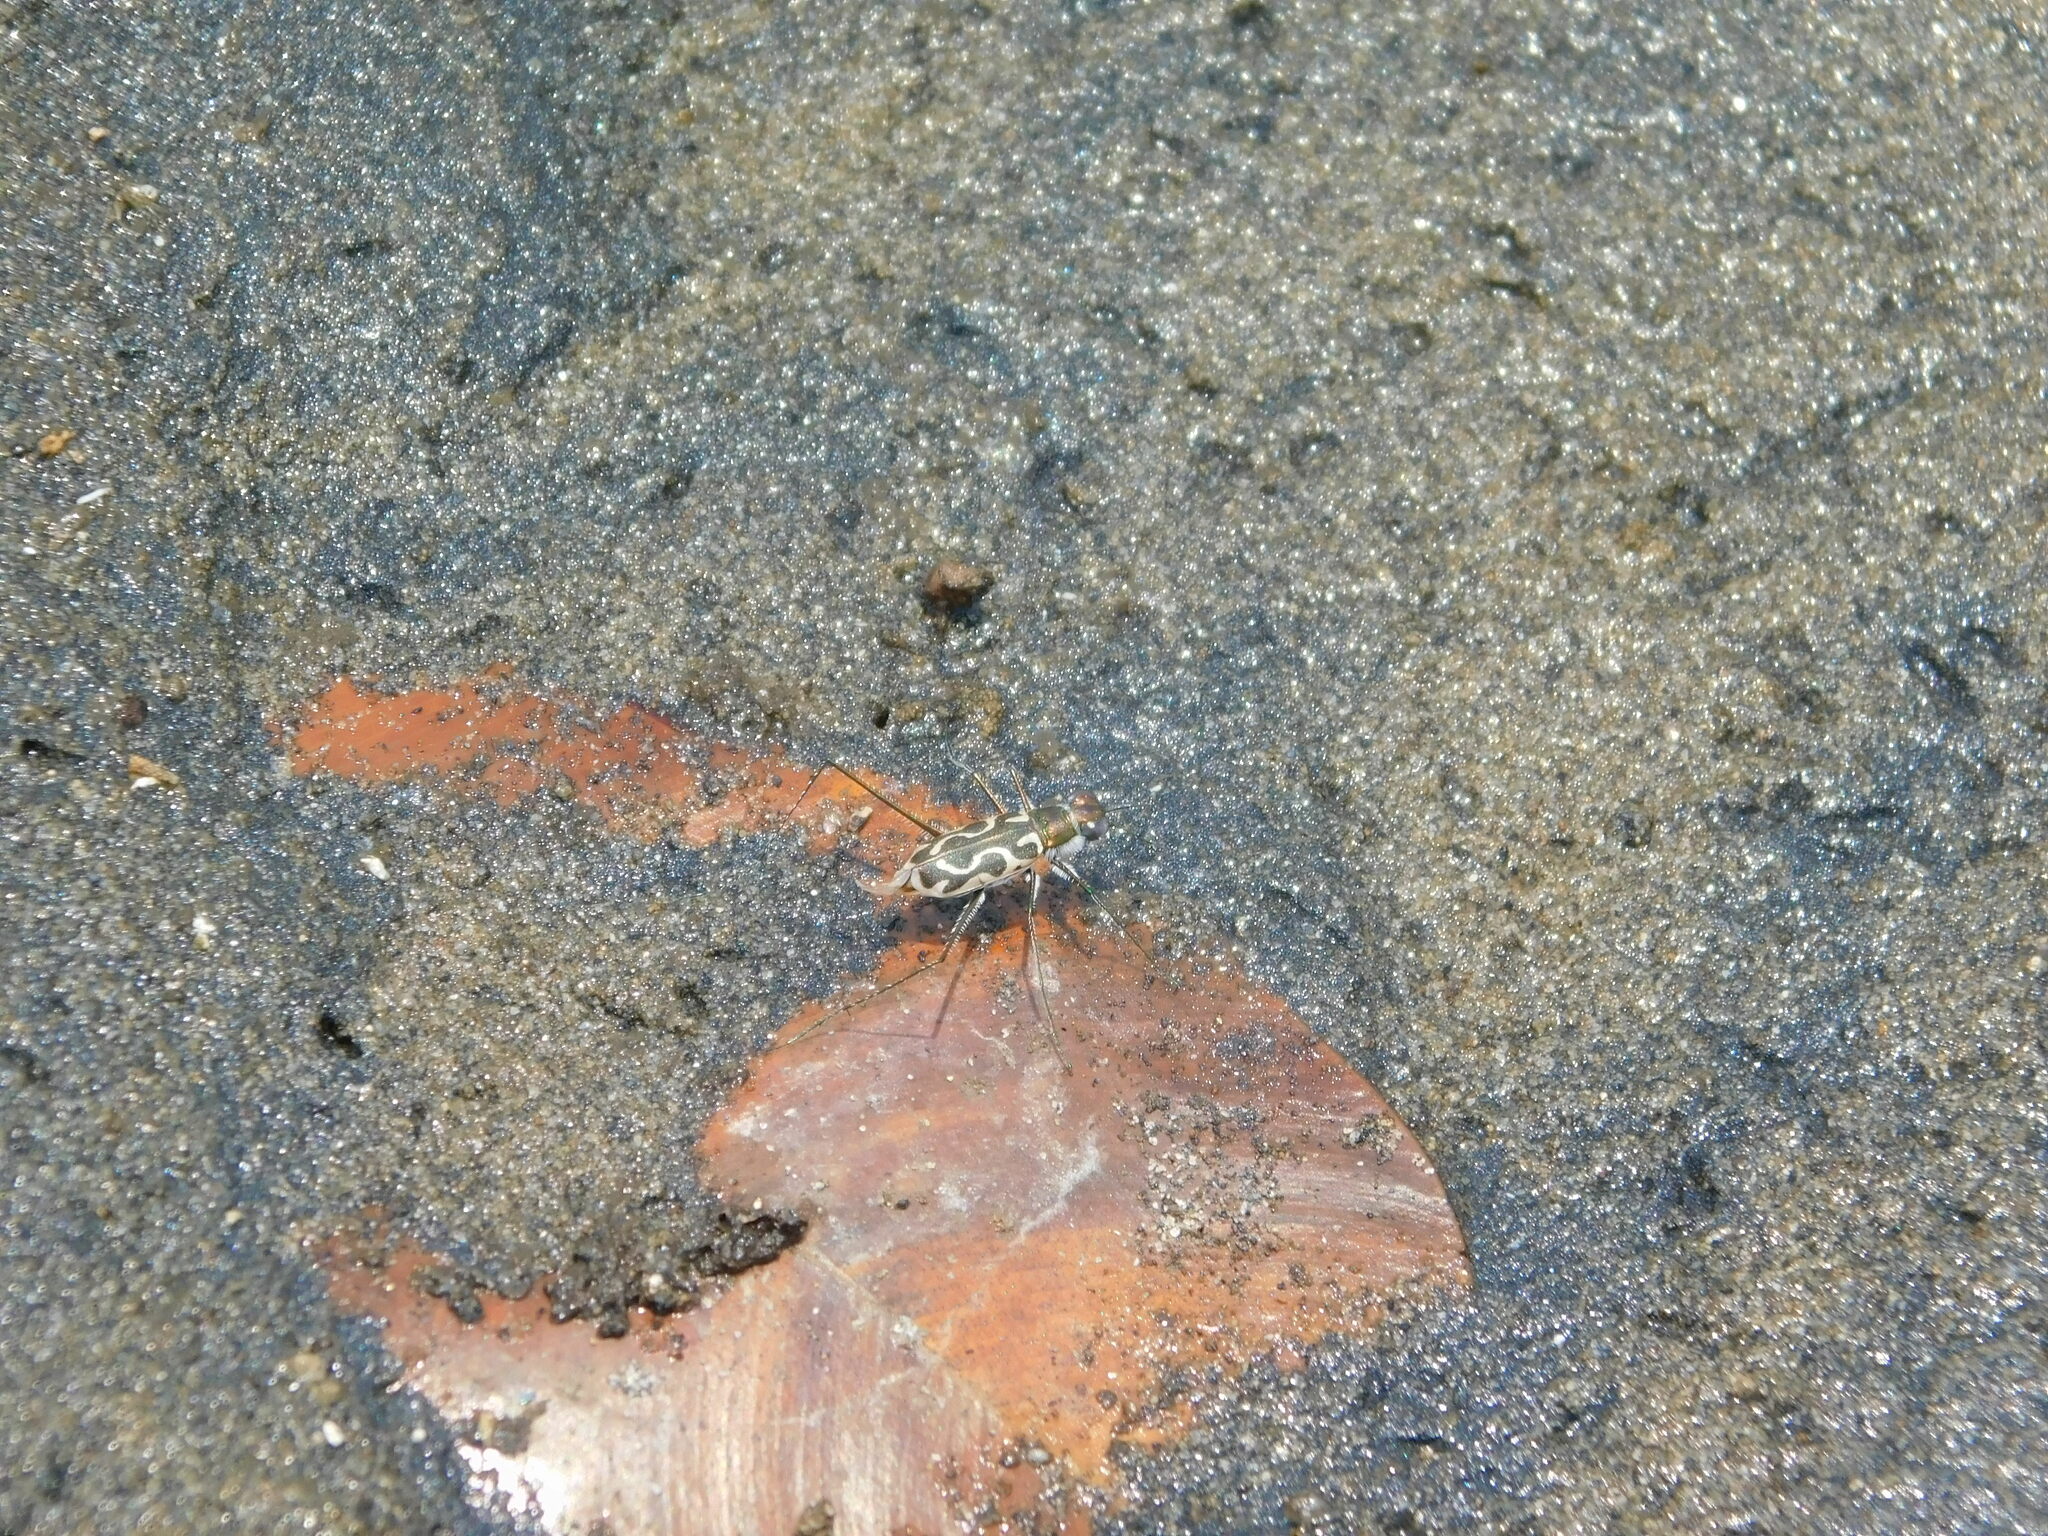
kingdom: Animalia
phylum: Arthropoda
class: Insecta
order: Coleoptera
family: Carabidae
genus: Abroscelis
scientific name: Abroscelis longipes
